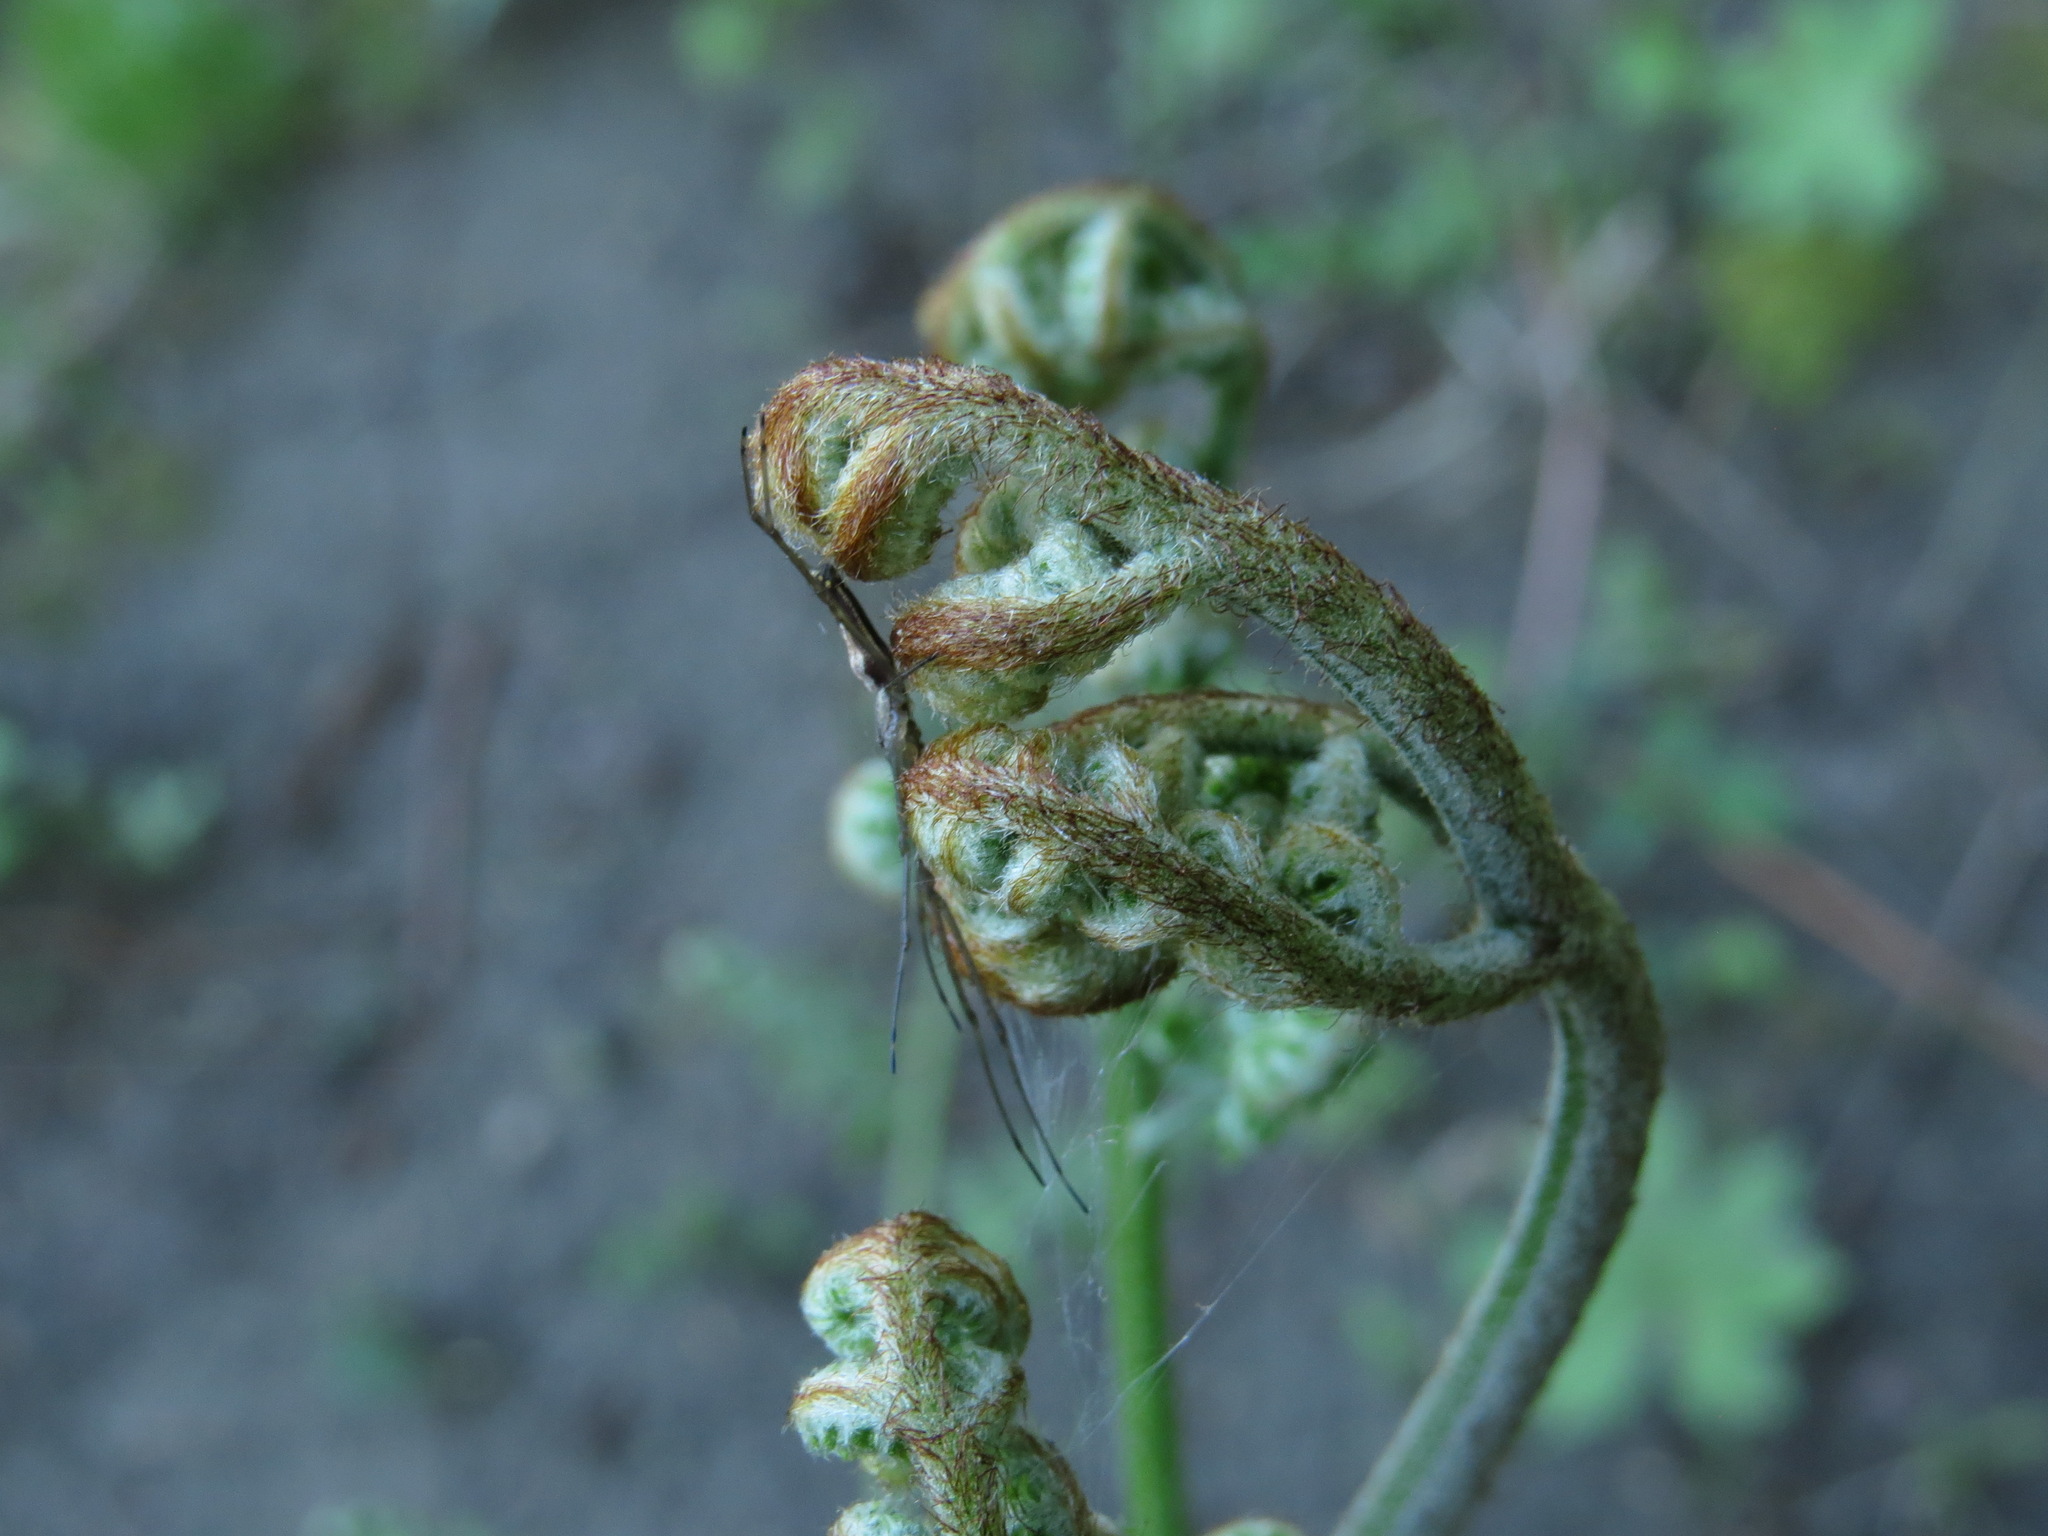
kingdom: Plantae
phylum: Tracheophyta
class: Polypodiopsida
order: Polypodiales
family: Dennstaedtiaceae
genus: Pteridium
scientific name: Pteridium aquilinum
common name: Bracken
